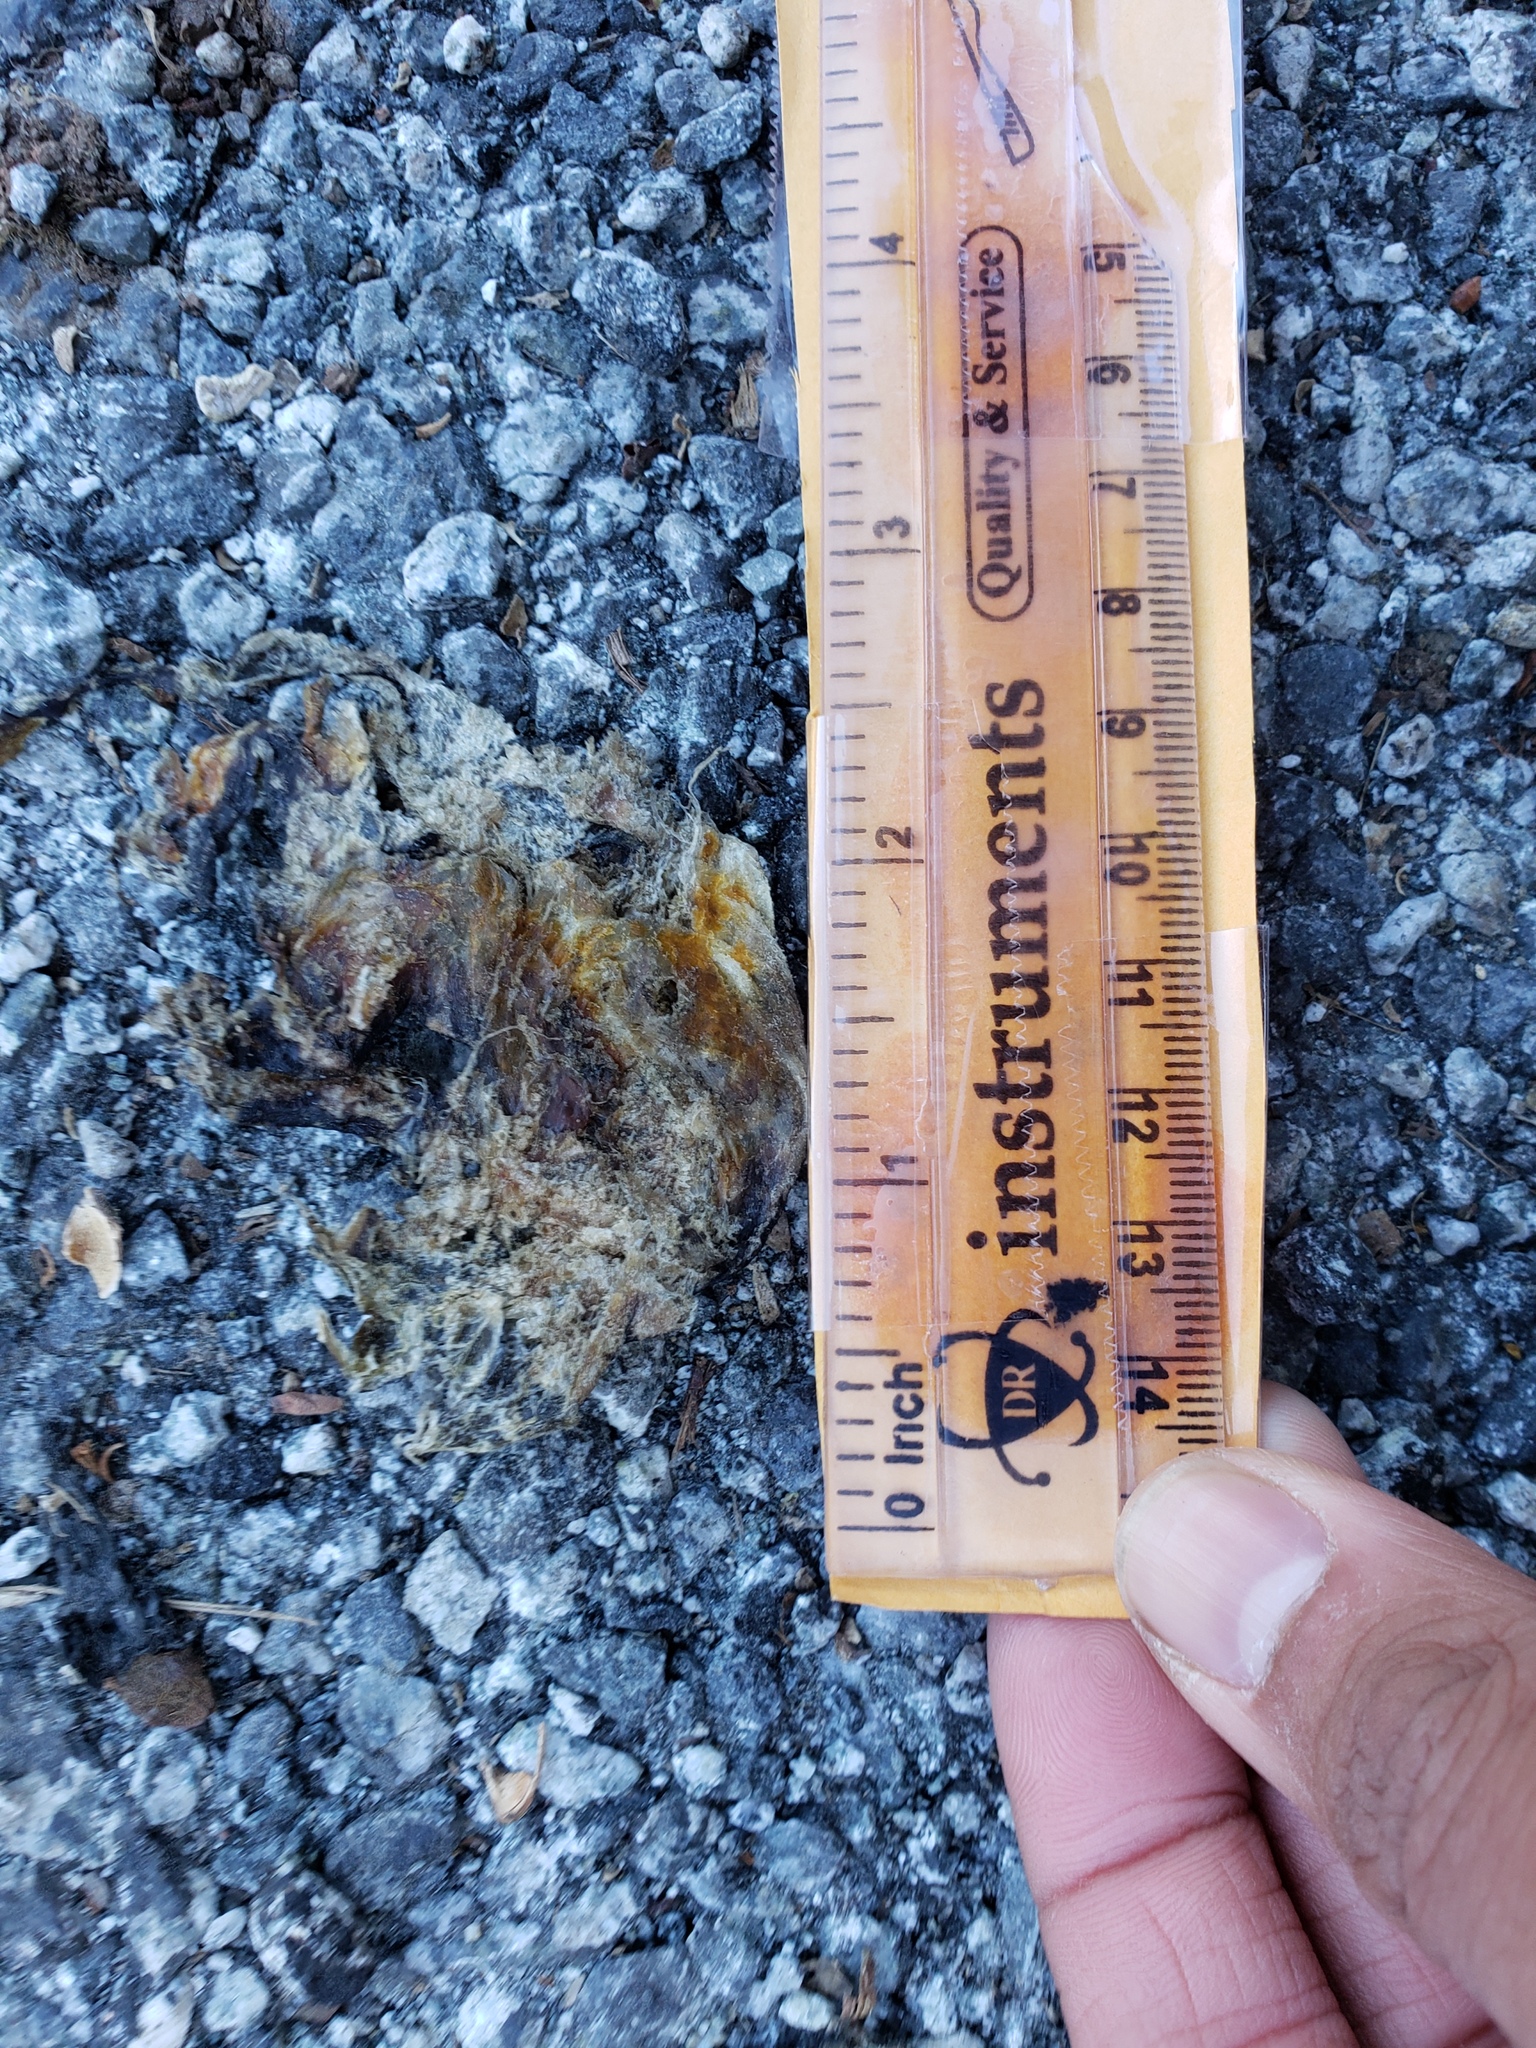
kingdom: Animalia
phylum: Chordata
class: Amphibia
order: Caudata
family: Salamandridae
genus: Taricha
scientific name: Taricha
